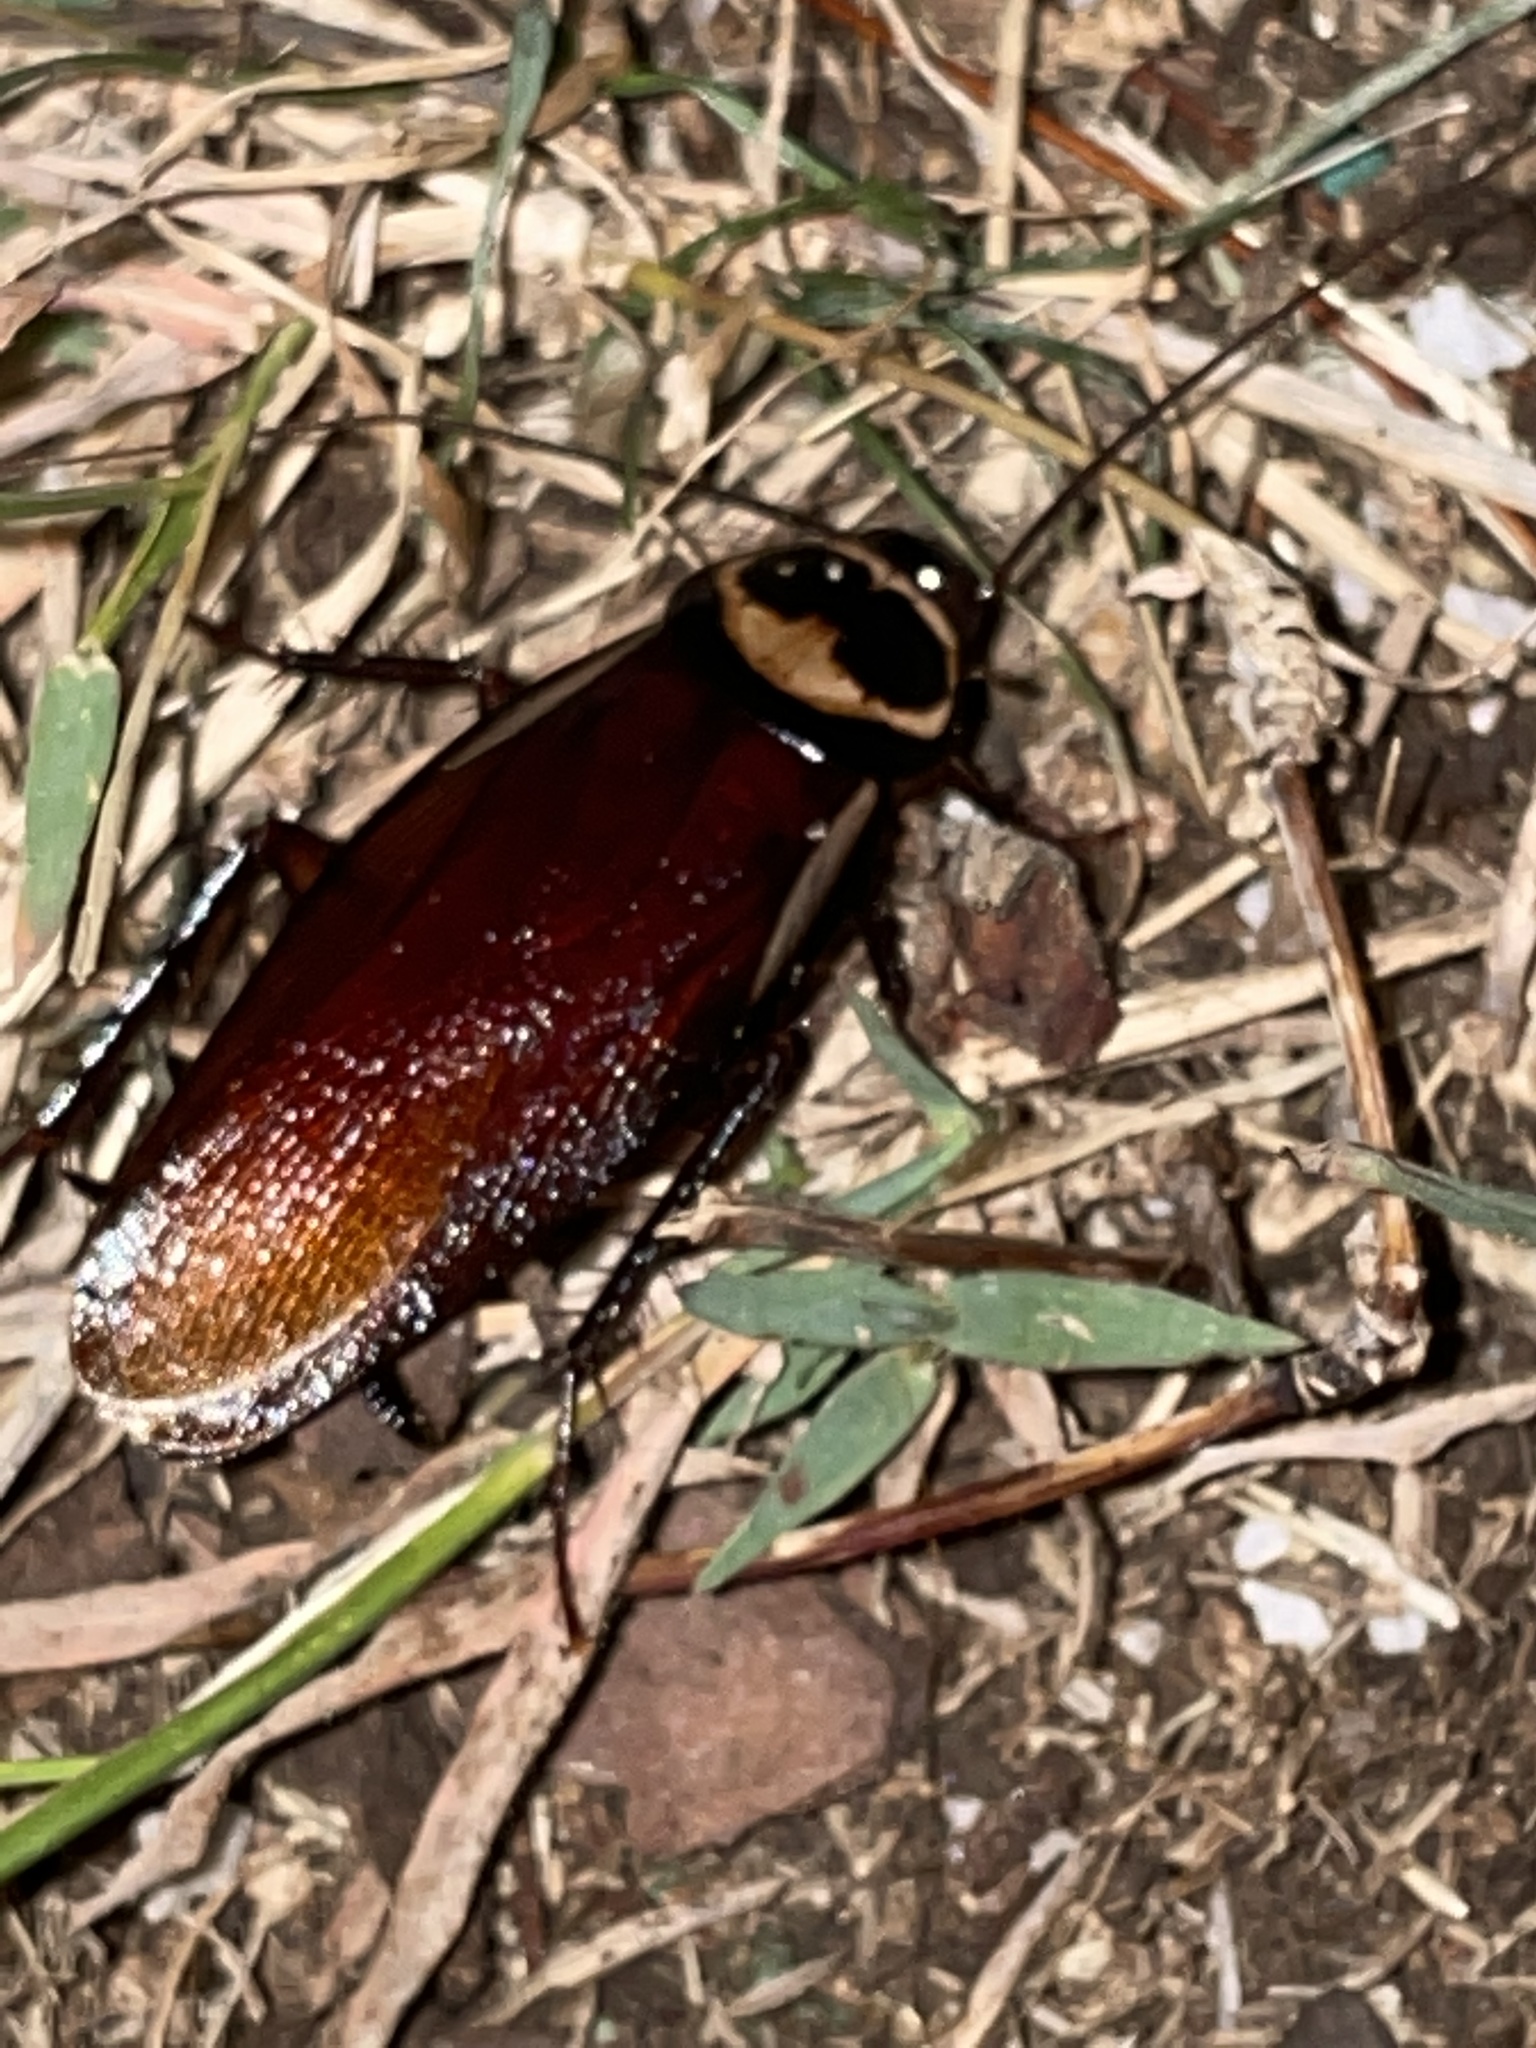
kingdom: Animalia
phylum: Arthropoda
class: Insecta
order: Blattodea
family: Blattidae
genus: Periplaneta
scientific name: Periplaneta australasiae
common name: Australian cockroach
